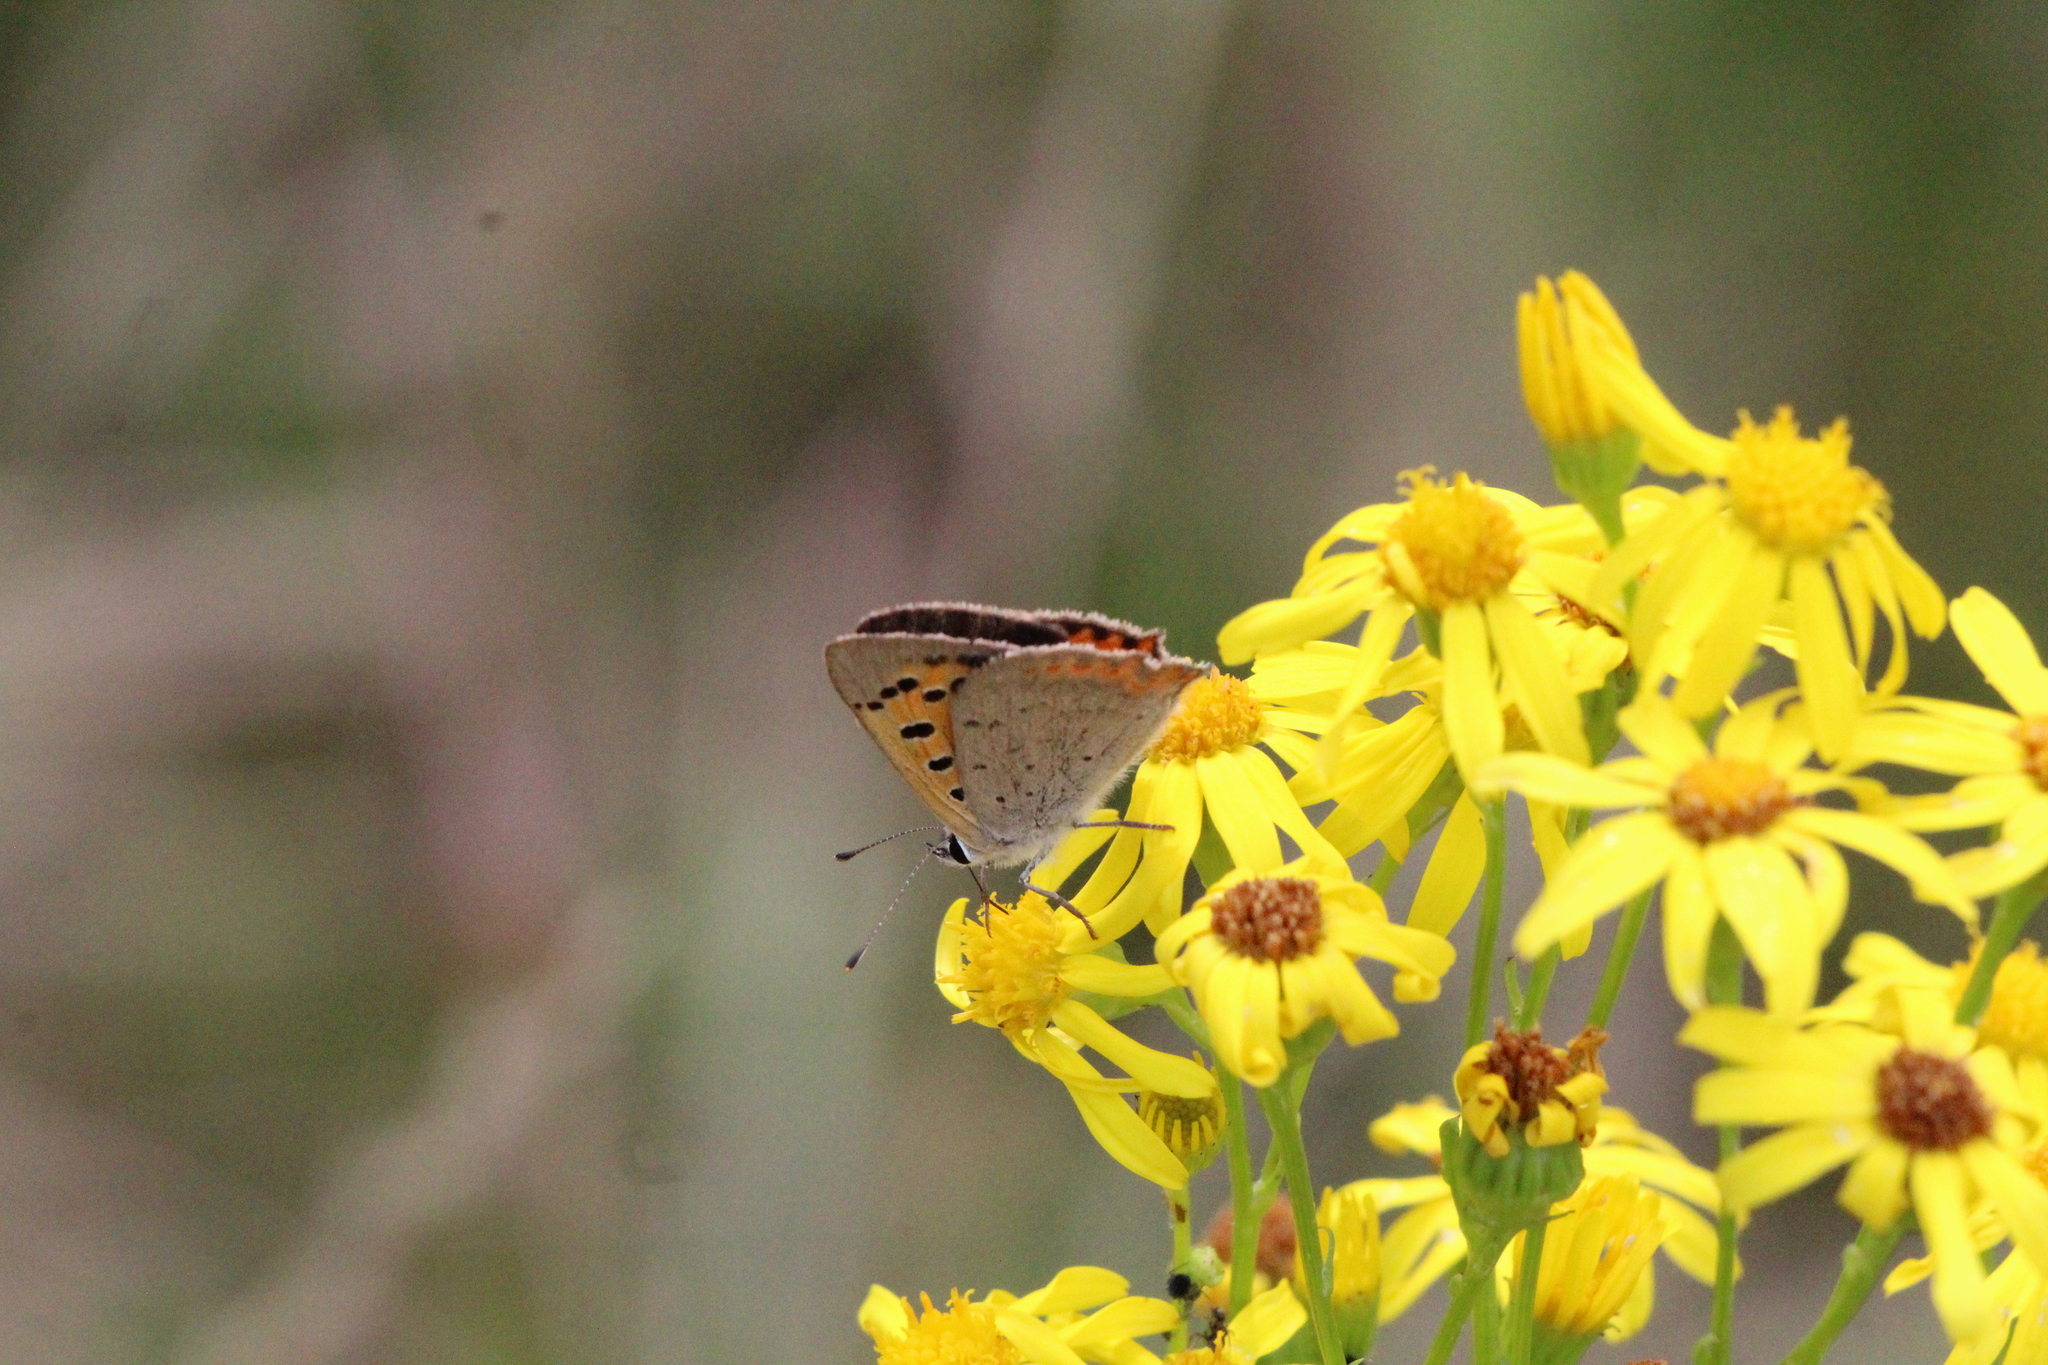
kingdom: Animalia
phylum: Arthropoda
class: Insecta
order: Lepidoptera
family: Lycaenidae
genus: Lycaena
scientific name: Lycaena phlaeas
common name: Small copper
